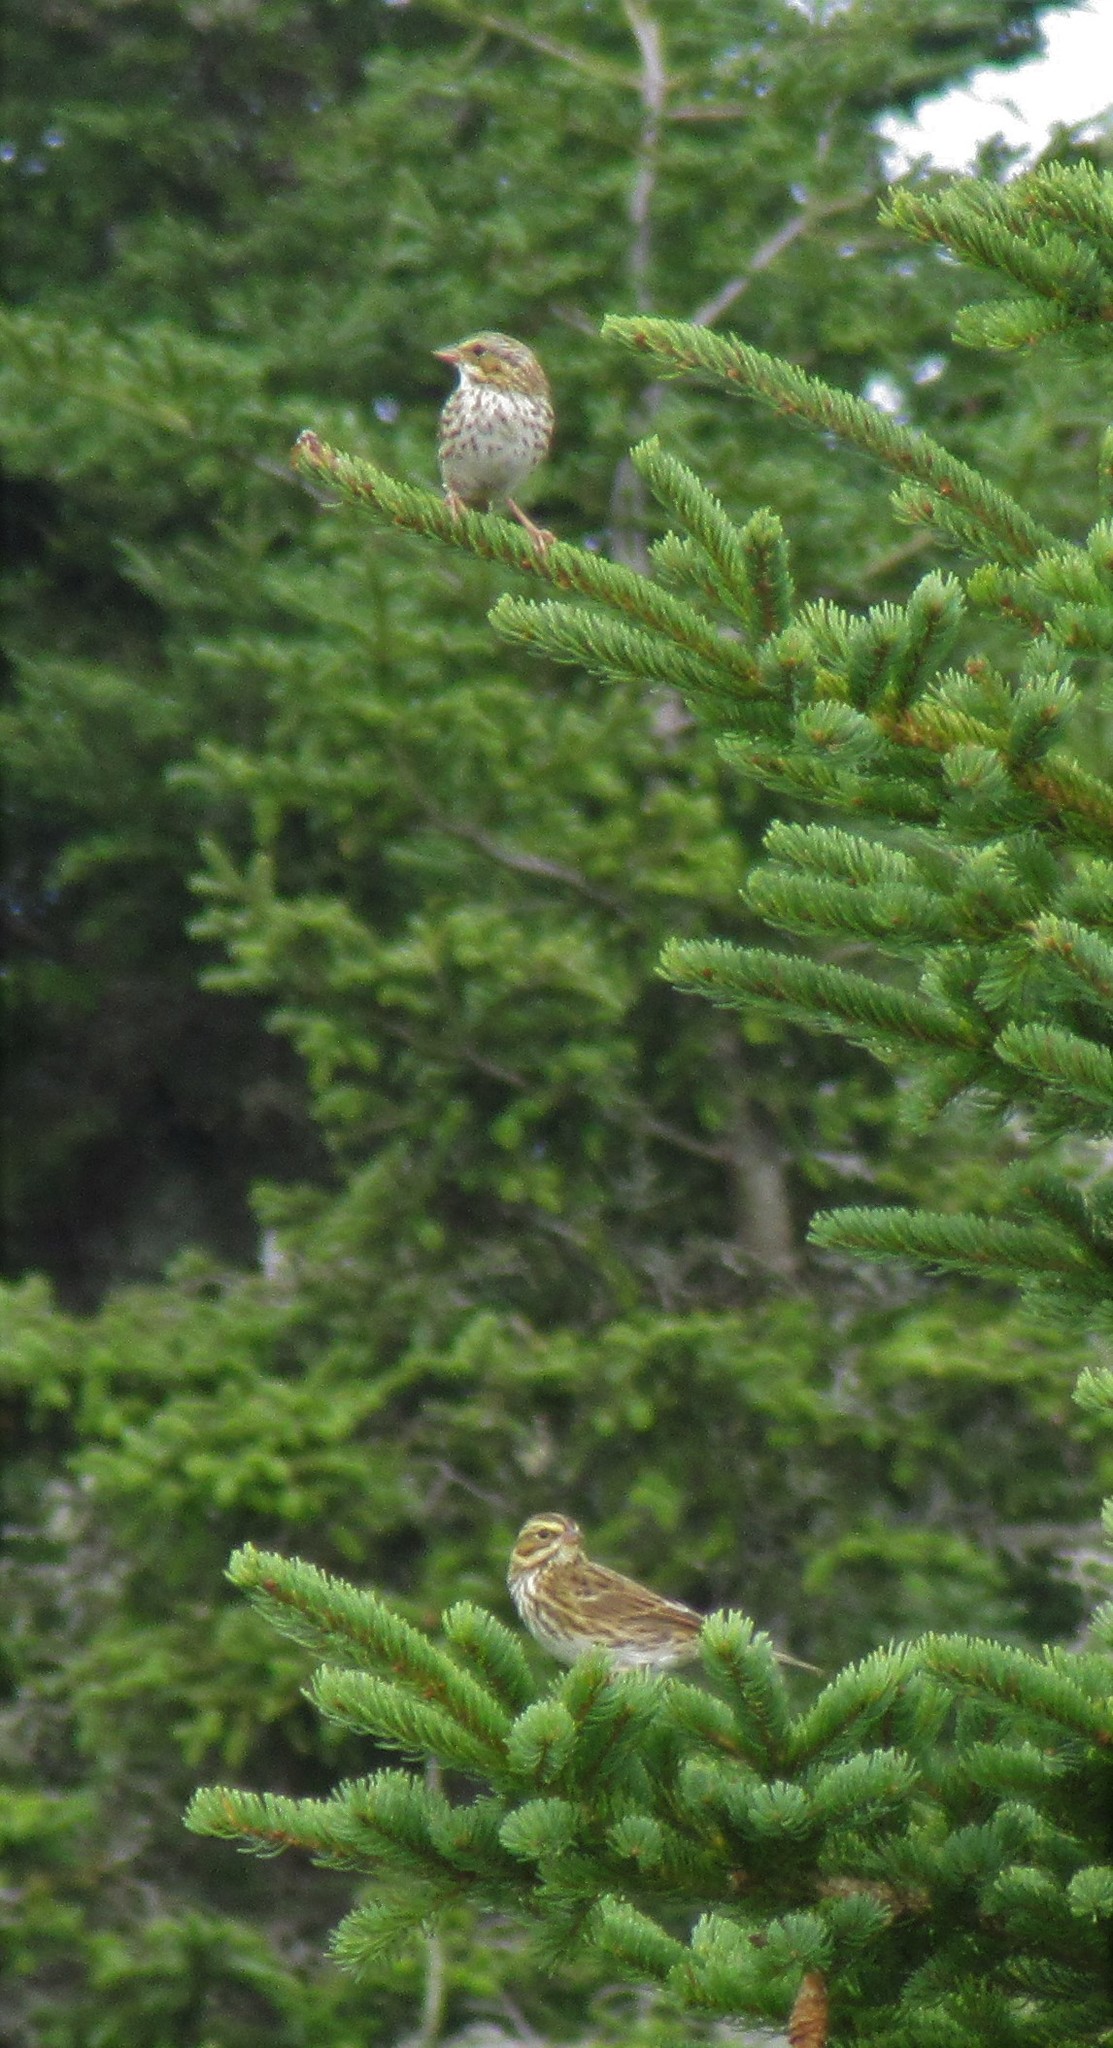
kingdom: Animalia
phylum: Chordata
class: Aves
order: Passeriformes
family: Passerellidae
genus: Passerculus
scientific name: Passerculus sandwichensis
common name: Savannah sparrow
